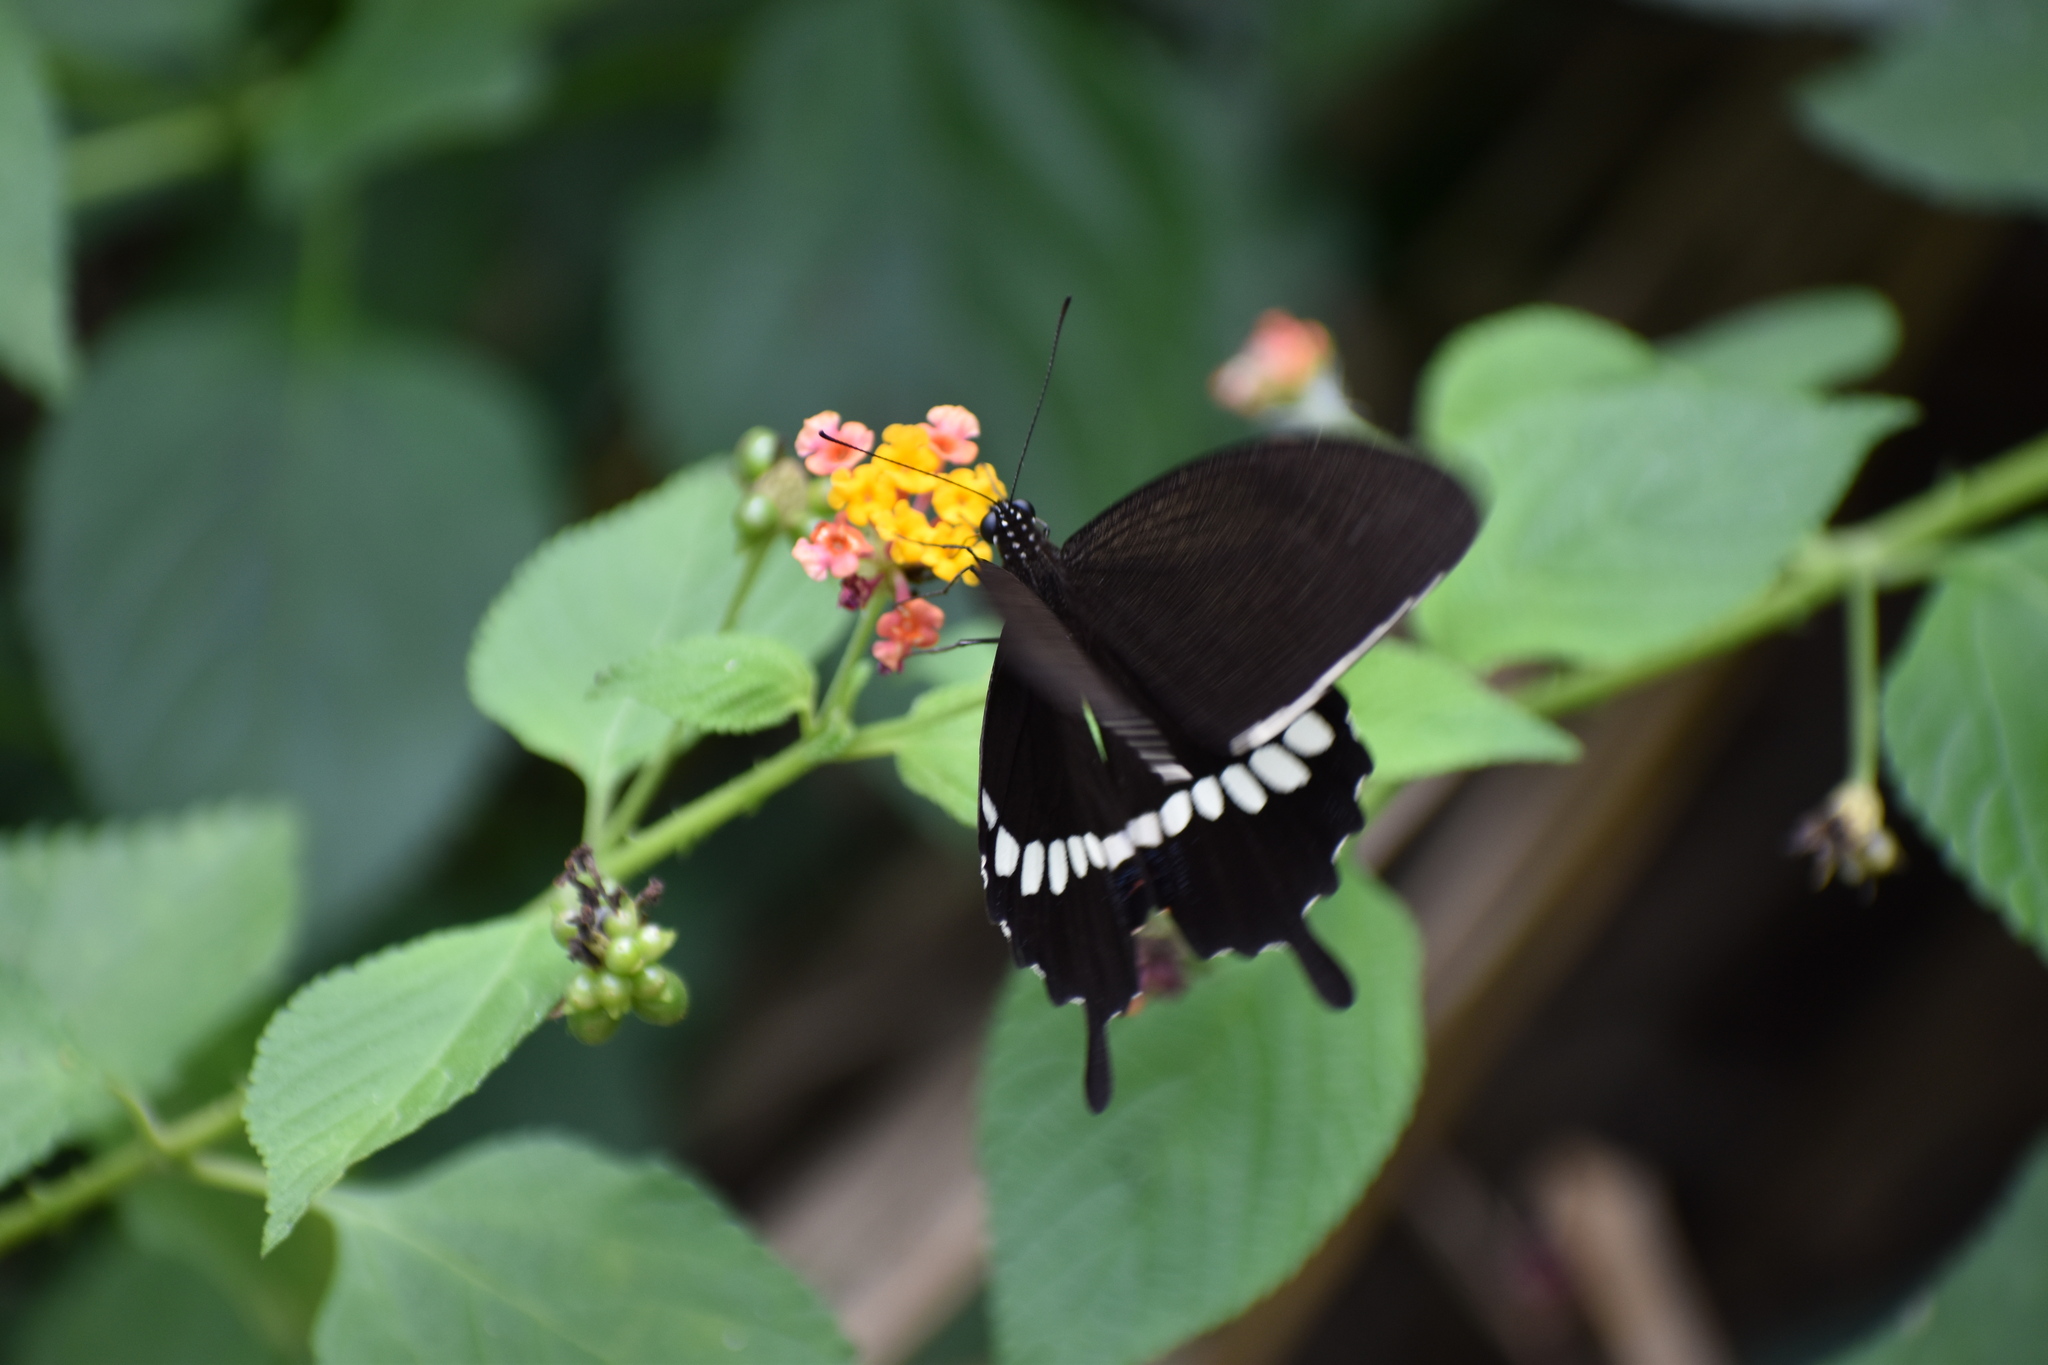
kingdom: Animalia
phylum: Arthropoda
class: Insecta
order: Lepidoptera
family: Papilionidae
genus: Papilio
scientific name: Papilio polytes
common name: Common mormon
